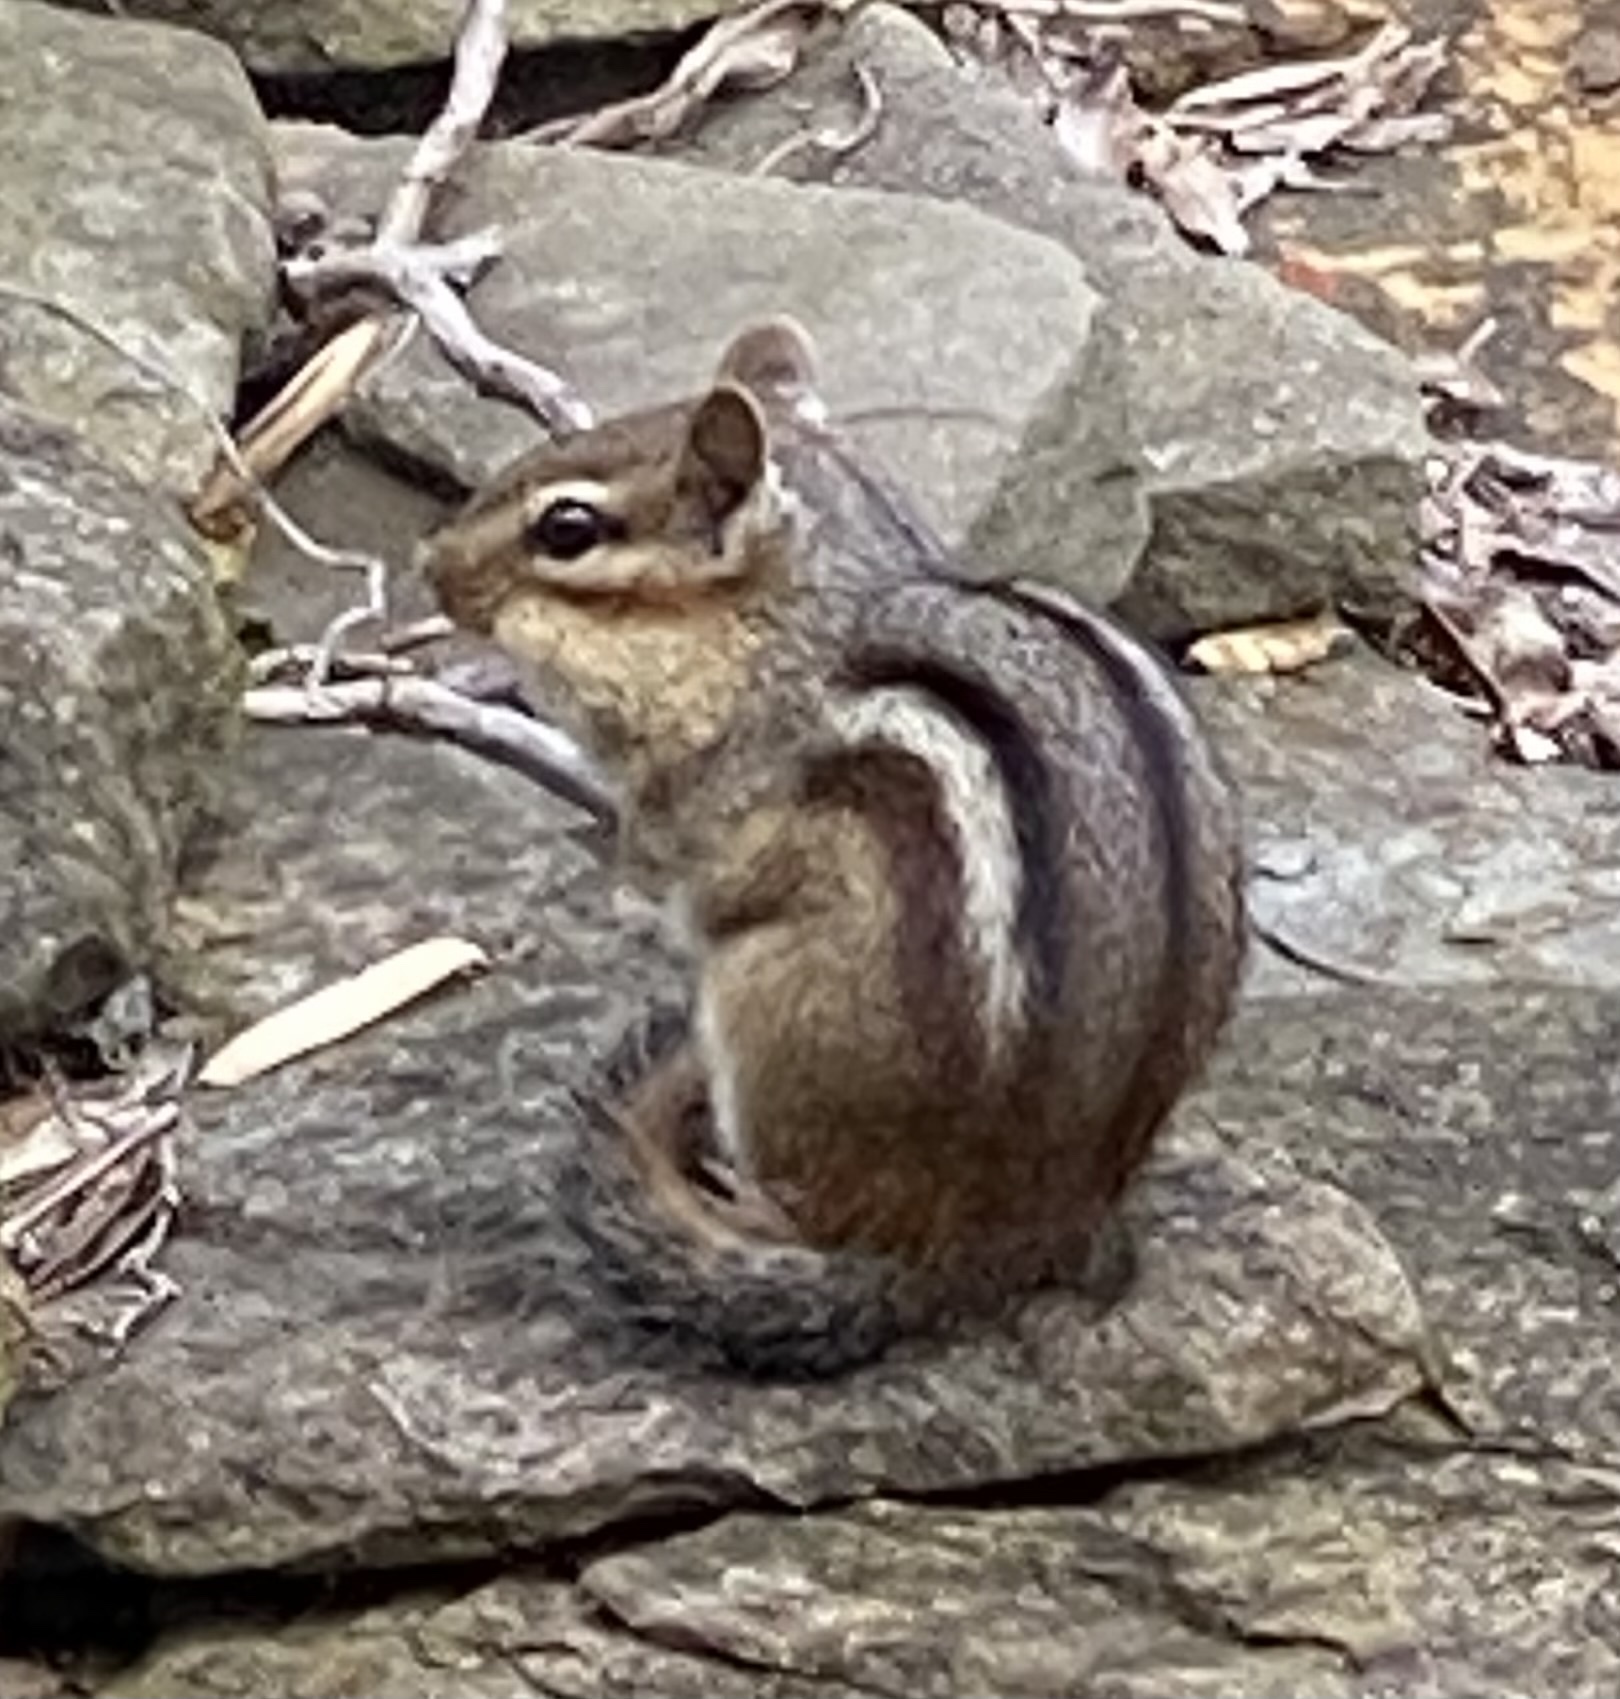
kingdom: Animalia
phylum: Chordata
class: Mammalia
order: Rodentia
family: Sciuridae
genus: Tamias
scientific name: Tamias striatus
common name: Eastern chipmunk
